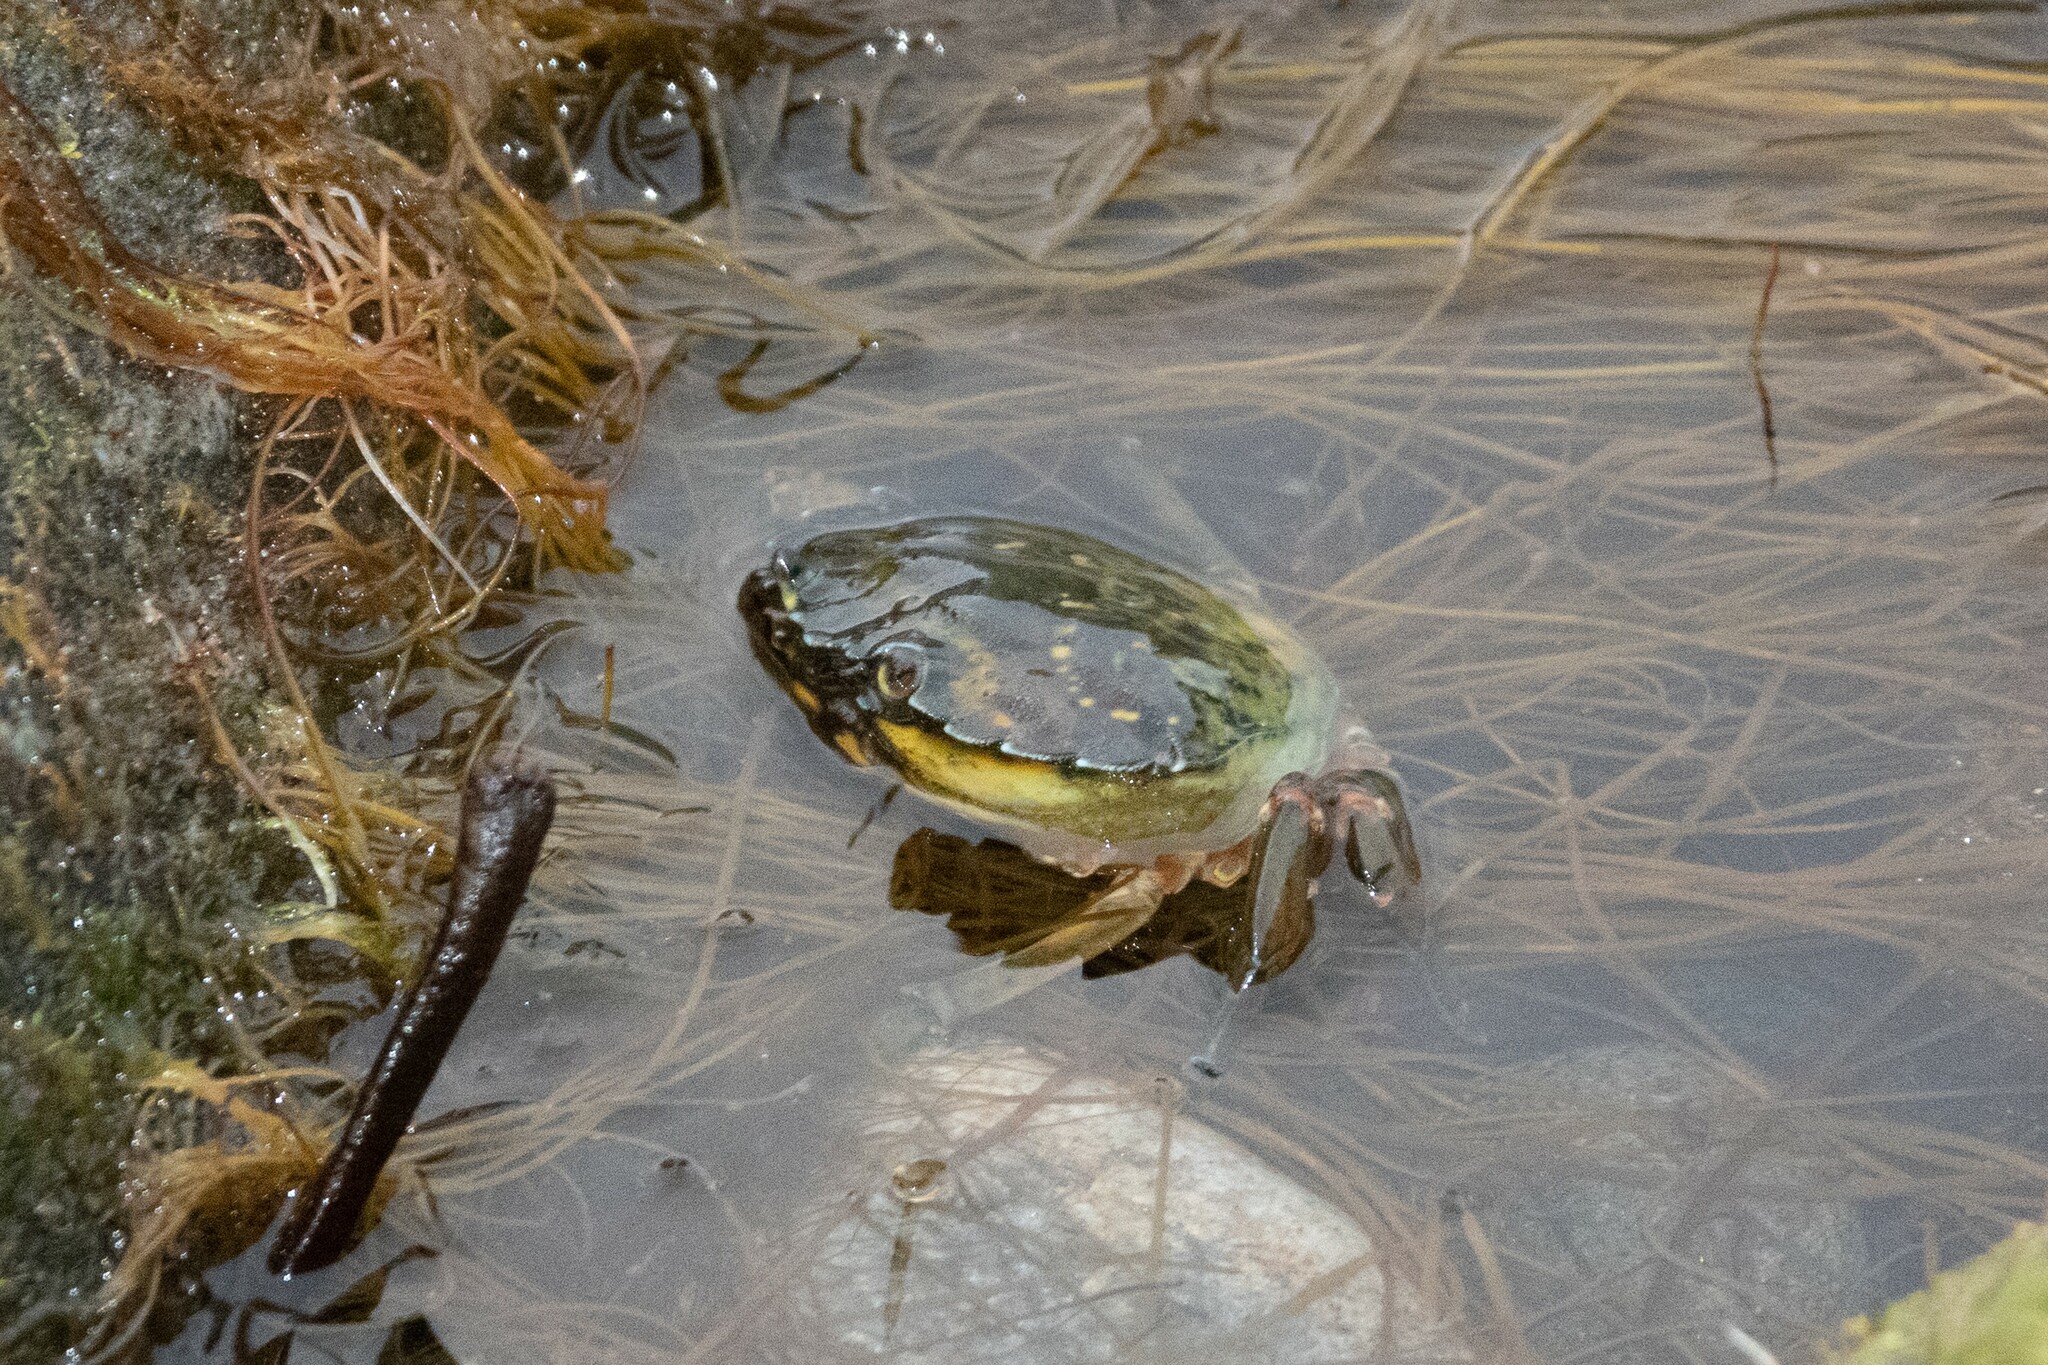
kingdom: Animalia
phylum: Arthropoda
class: Malacostraca
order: Decapoda
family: Carcinidae
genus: Carcinus
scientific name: Carcinus maenas
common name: European green crab
